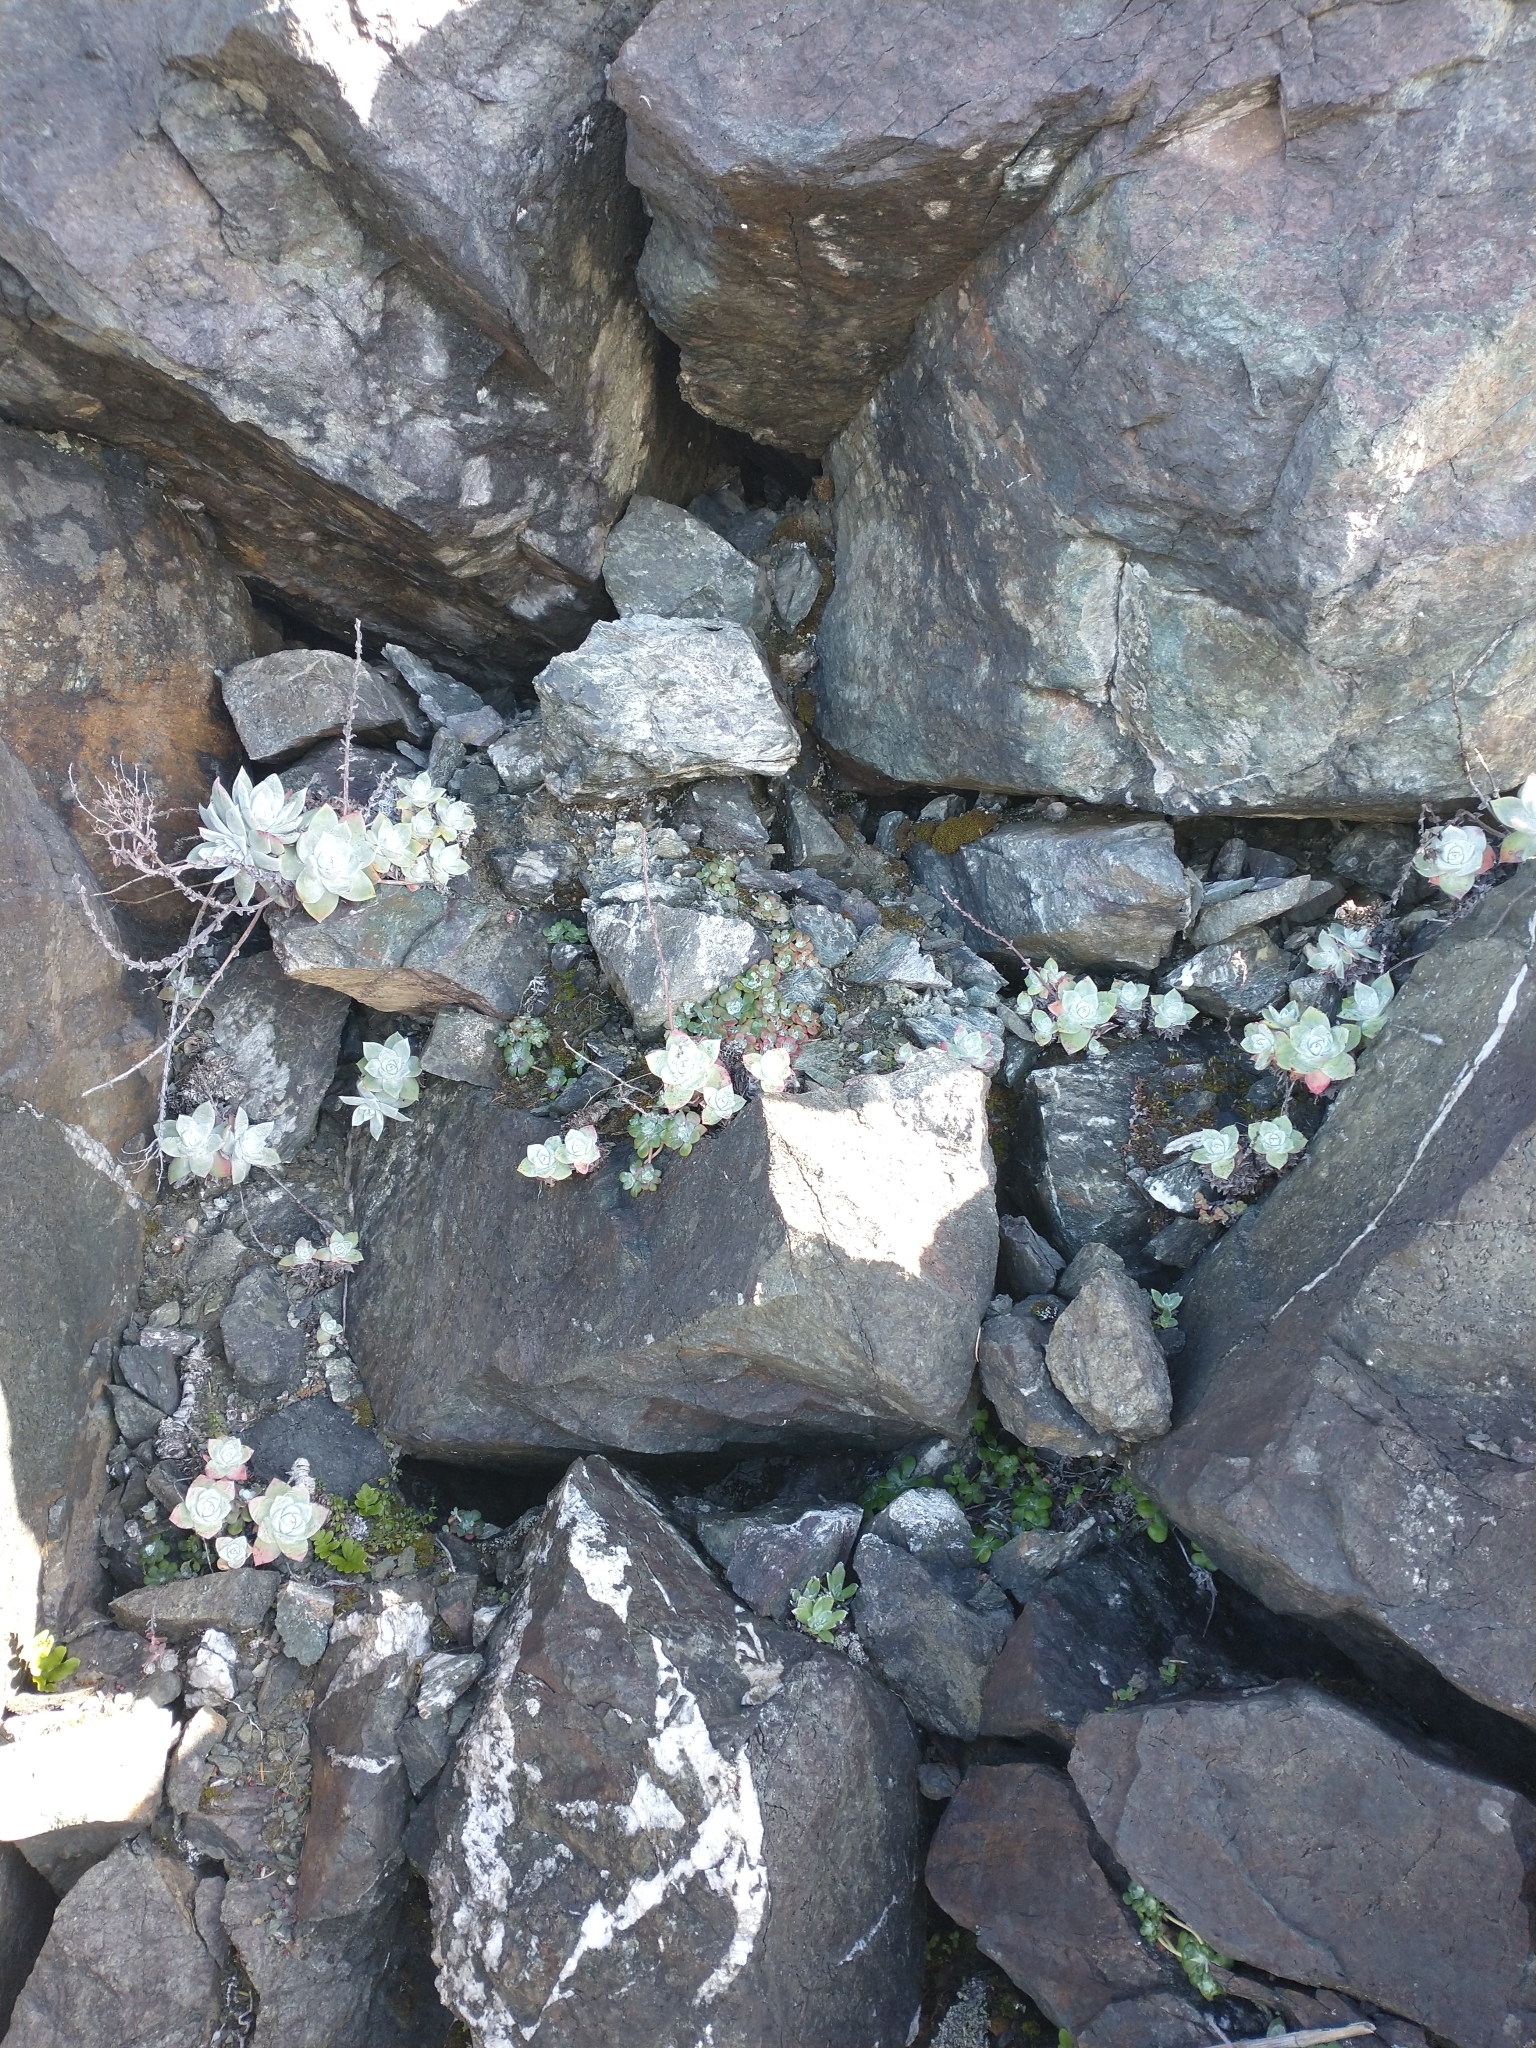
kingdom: Plantae
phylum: Tracheophyta
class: Magnoliopsida
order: Saxifragales
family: Crassulaceae
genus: Dudleya
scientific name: Dudleya farinosa
